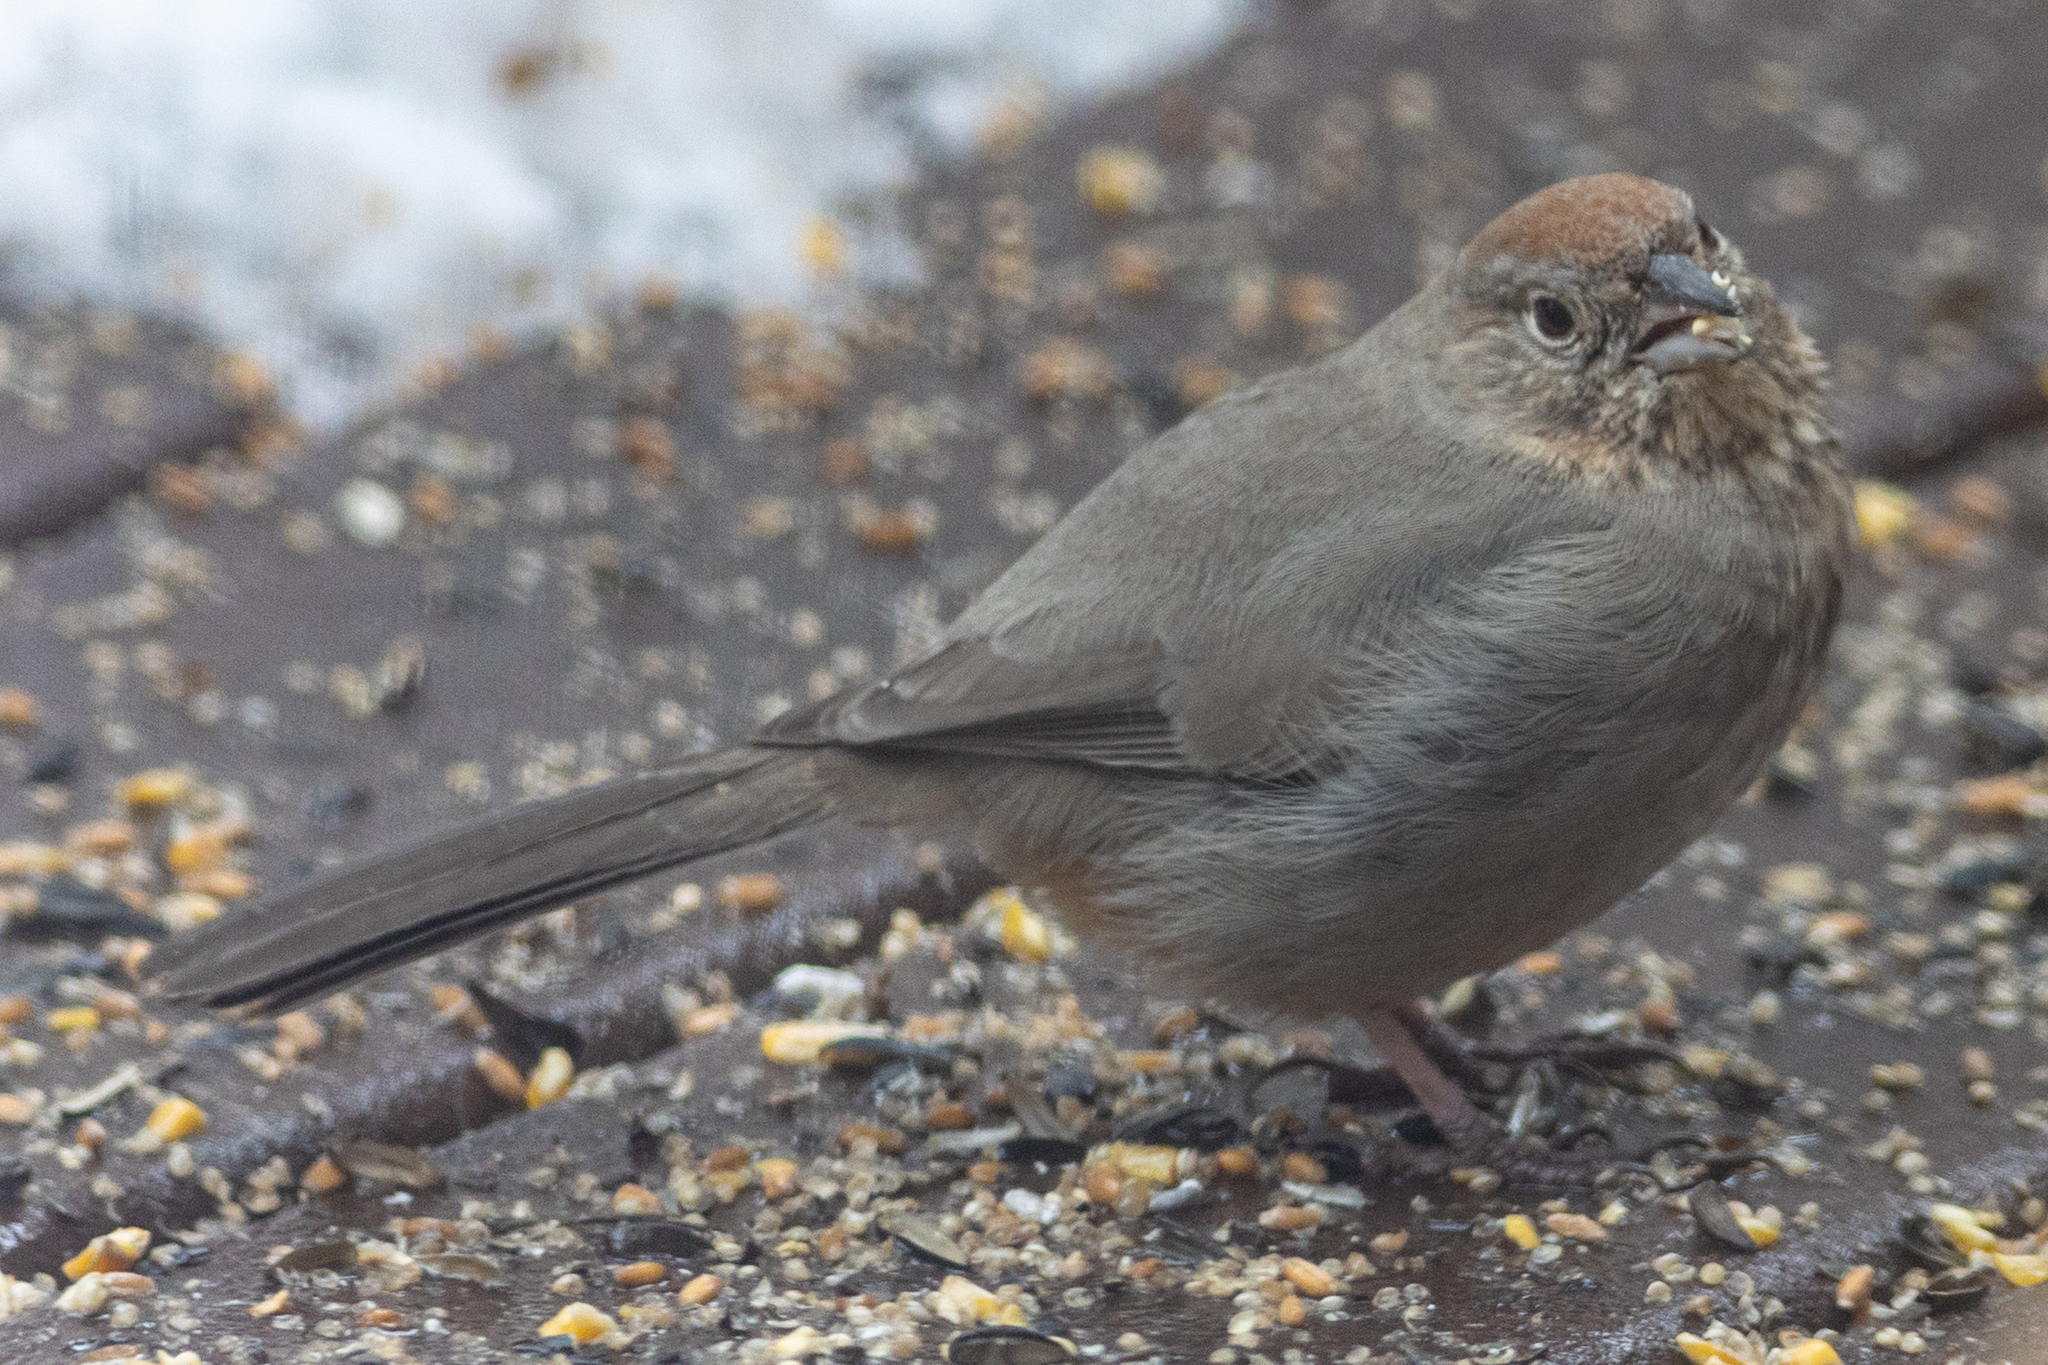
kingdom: Animalia
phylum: Chordata
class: Aves
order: Passeriformes
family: Passerellidae
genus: Melozone
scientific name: Melozone fusca
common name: Canyon towhee
